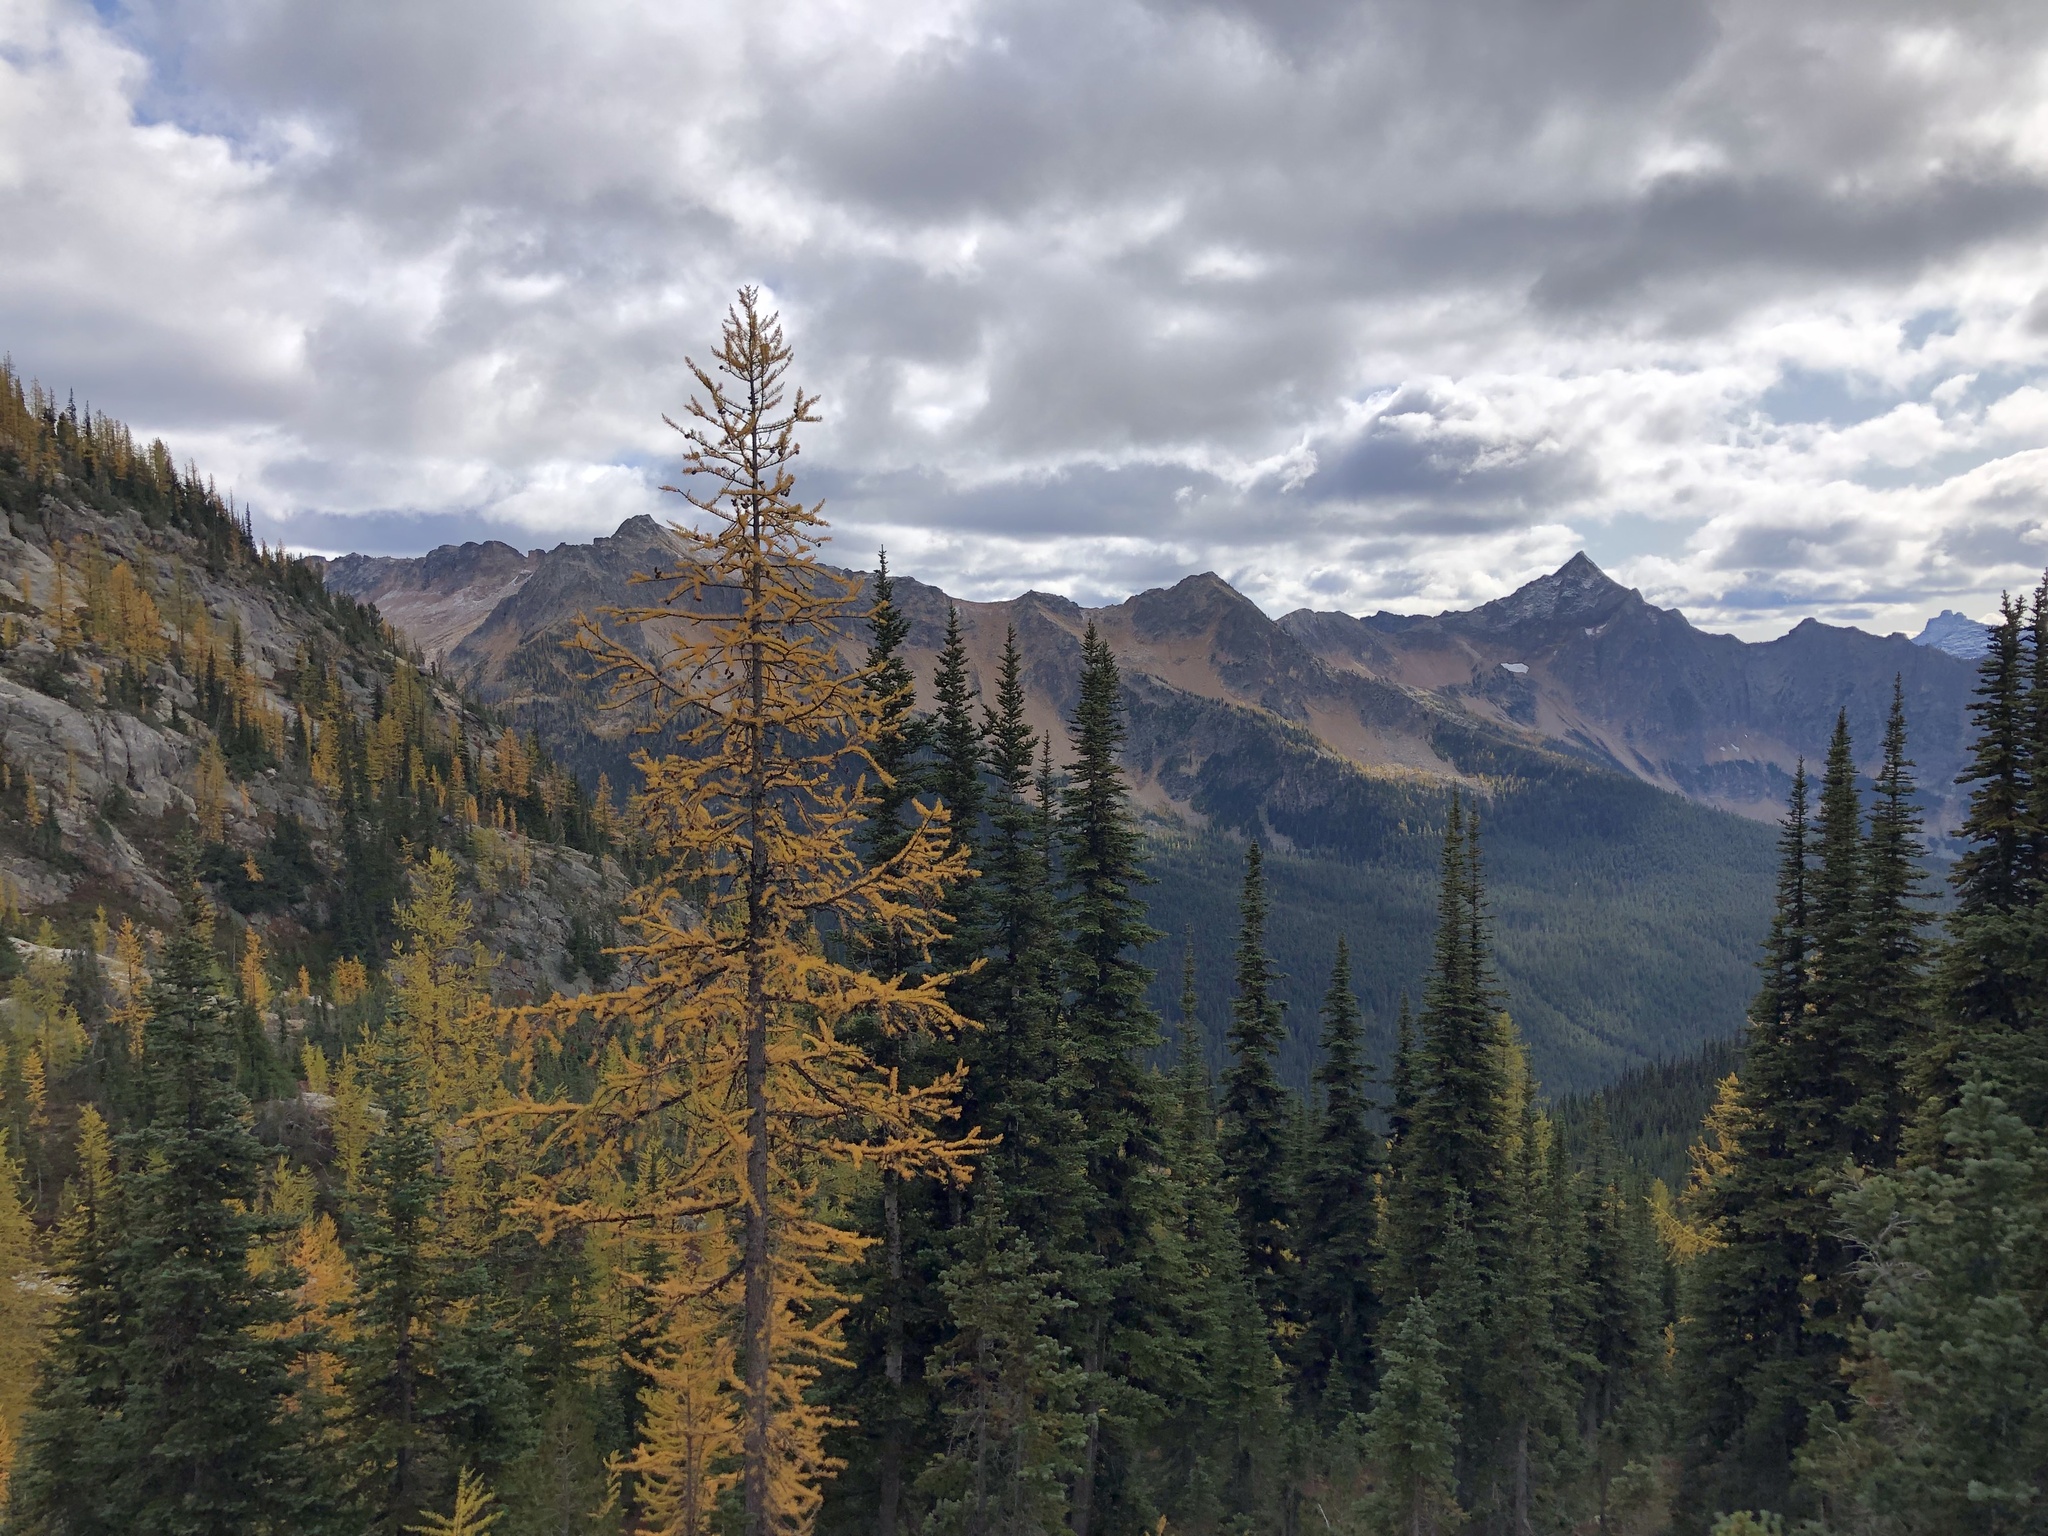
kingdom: Plantae
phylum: Tracheophyta
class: Pinopsida
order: Pinales
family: Pinaceae
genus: Abies
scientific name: Abies lasiocarpa
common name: Subalpine fir
